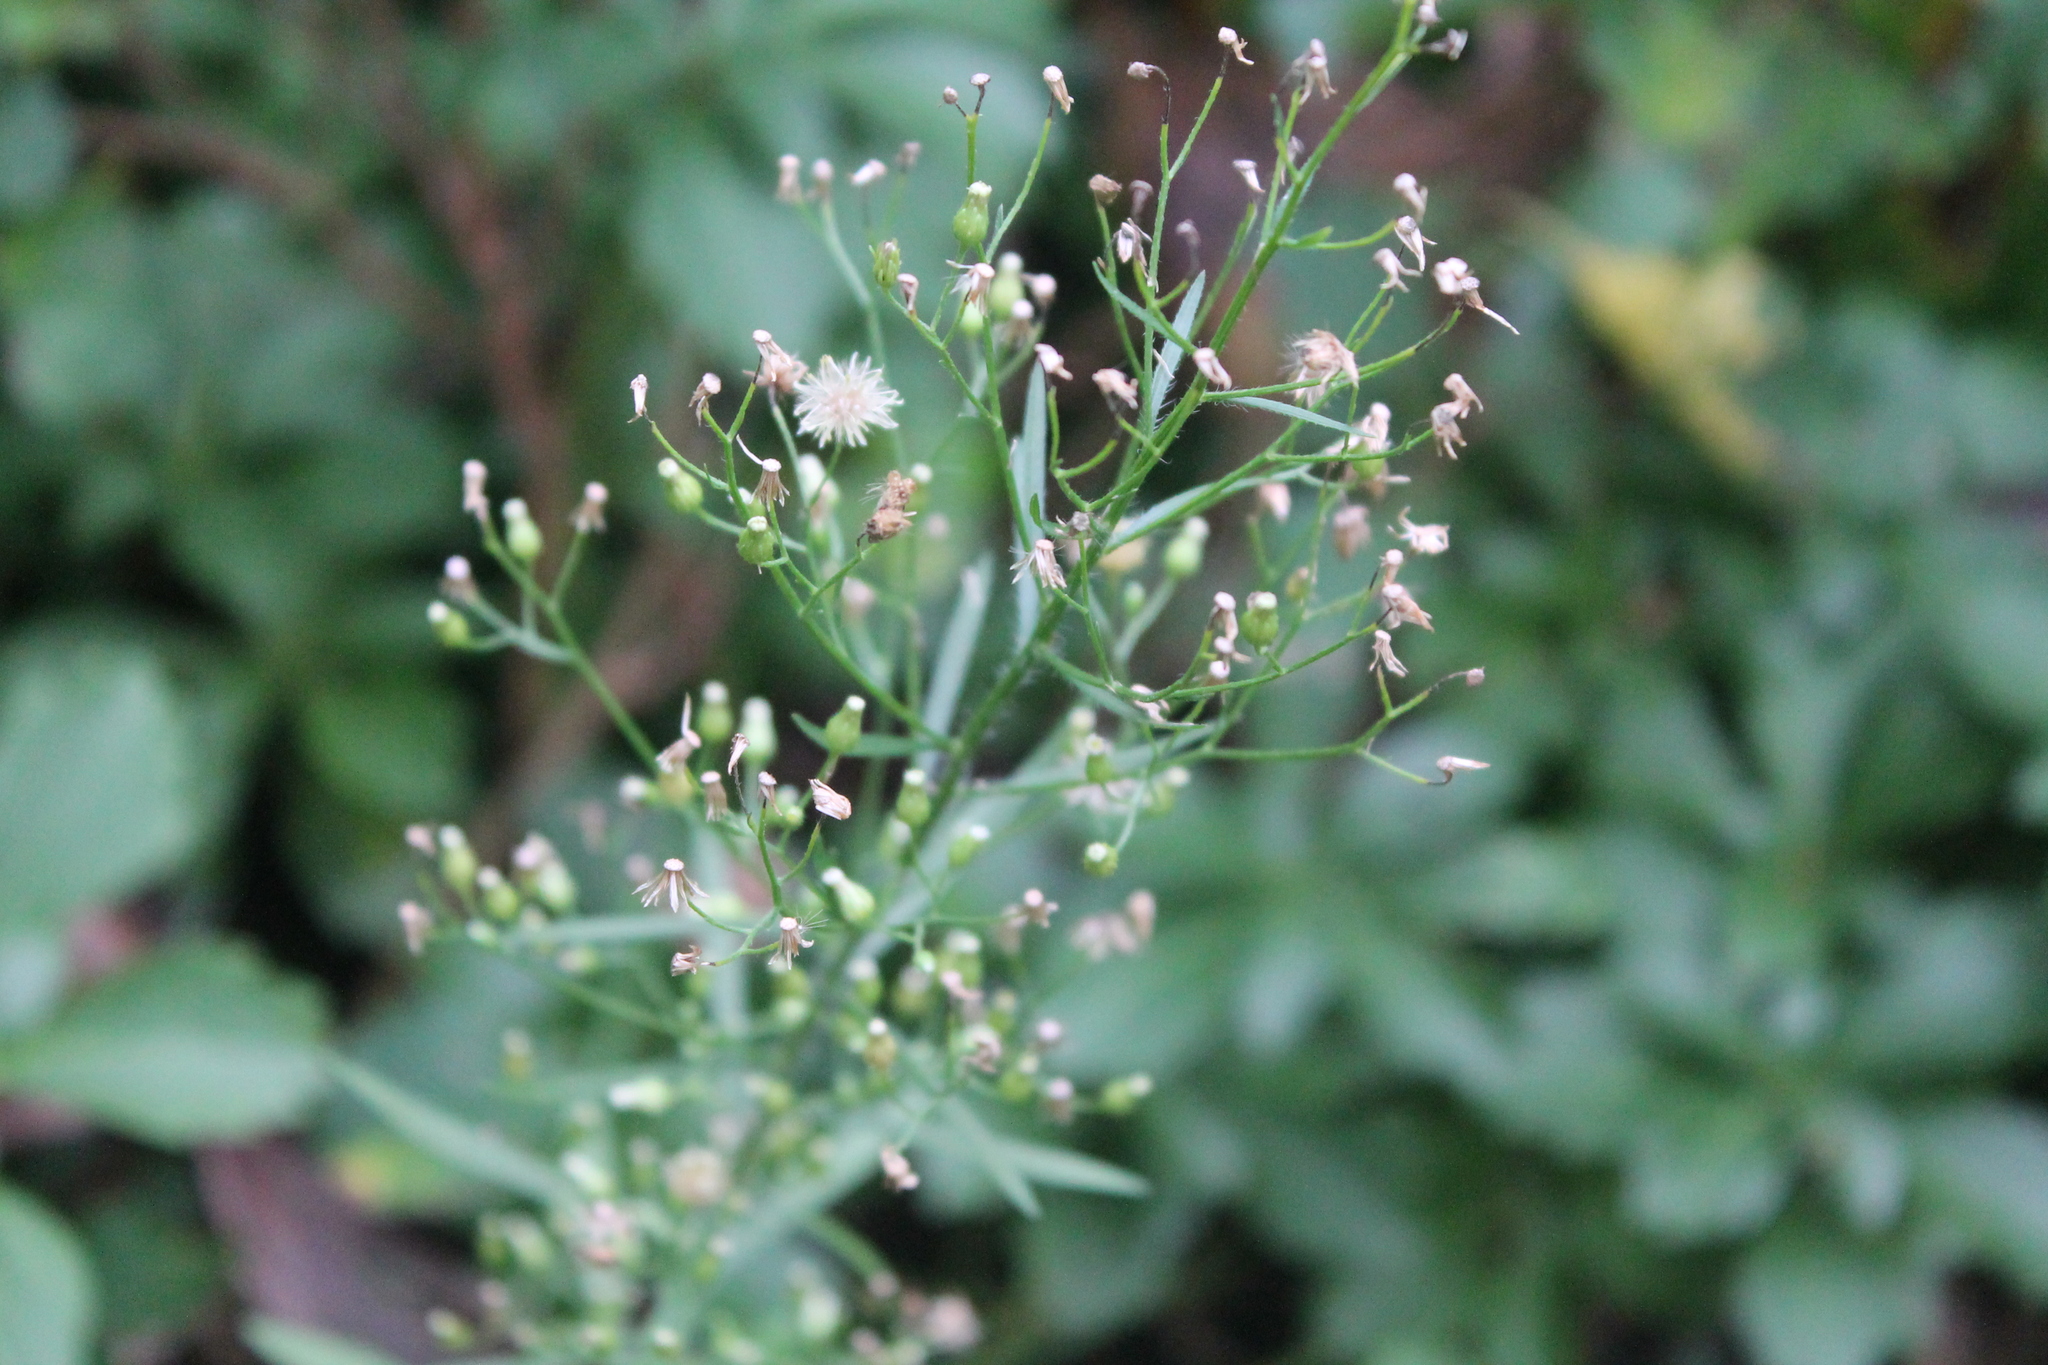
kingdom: Plantae
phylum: Tracheophyta
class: Magnoliopsida
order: Asterales
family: Asteraceae
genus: Erigeron
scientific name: Erigeron canadensis
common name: Canadian fleabane
